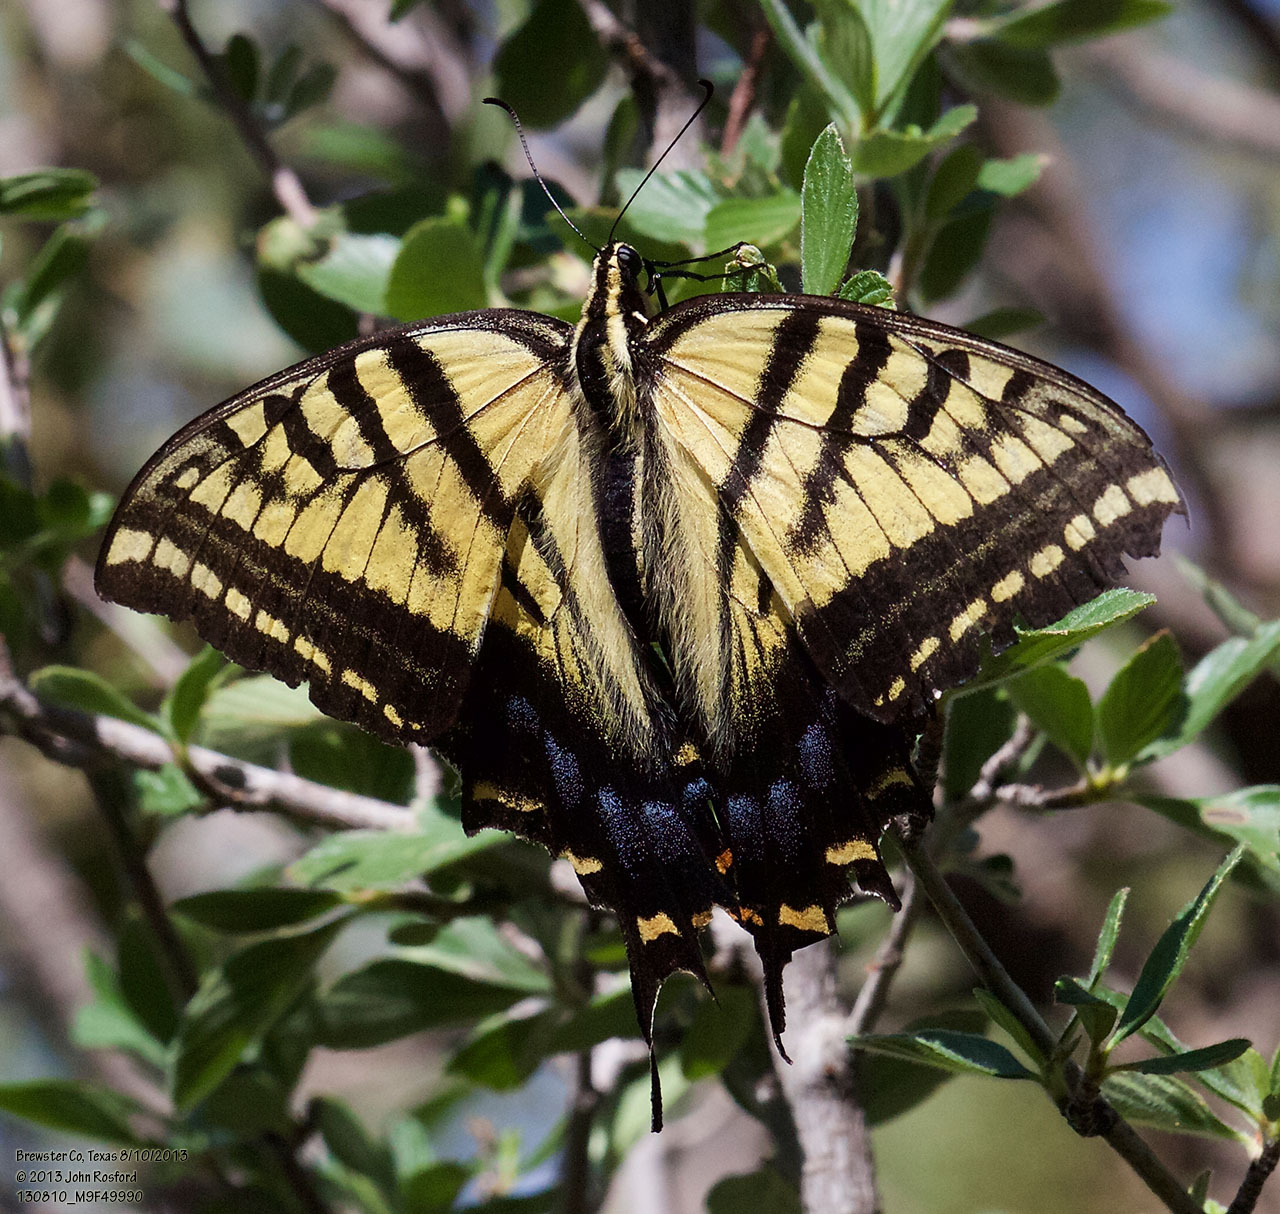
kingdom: Animalia
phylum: Arthropoda
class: Insecta
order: Lepidoptera
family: Papilionidae
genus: Papilio
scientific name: Papilio multicaudata
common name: Two-tailed tiger swallowtail
